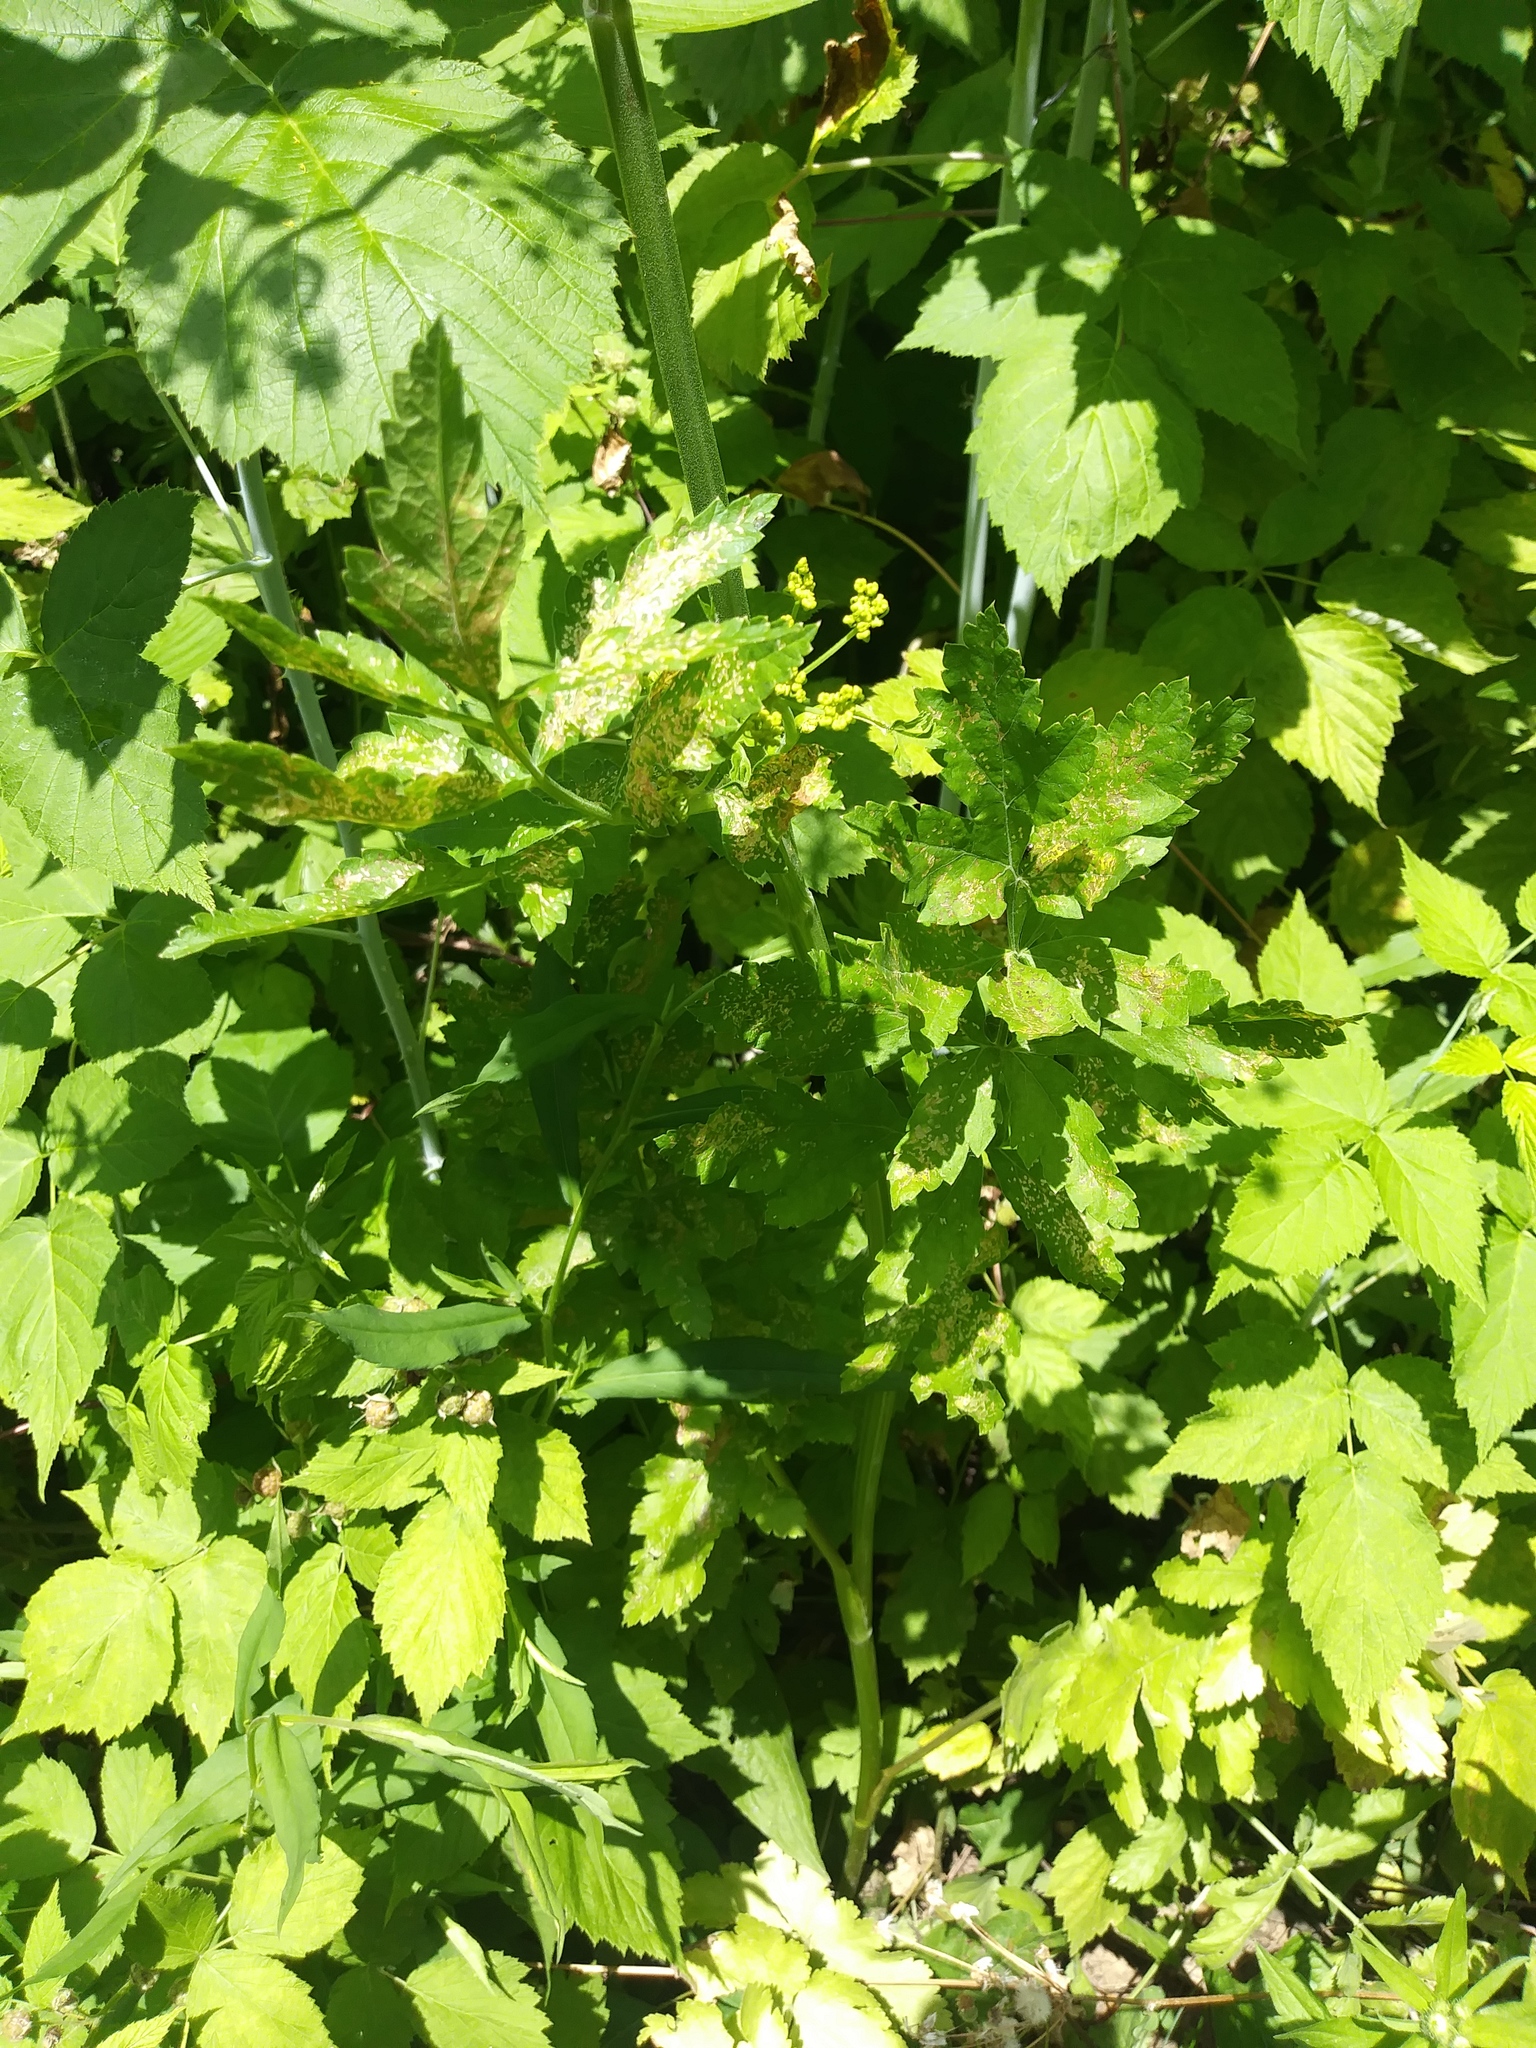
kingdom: Plantae
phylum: Tracheophyta
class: Magnoliopsida
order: Apiales
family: Apiaceae
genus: Pastinaca
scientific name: Pastinaca sativa
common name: Wild parsnip
